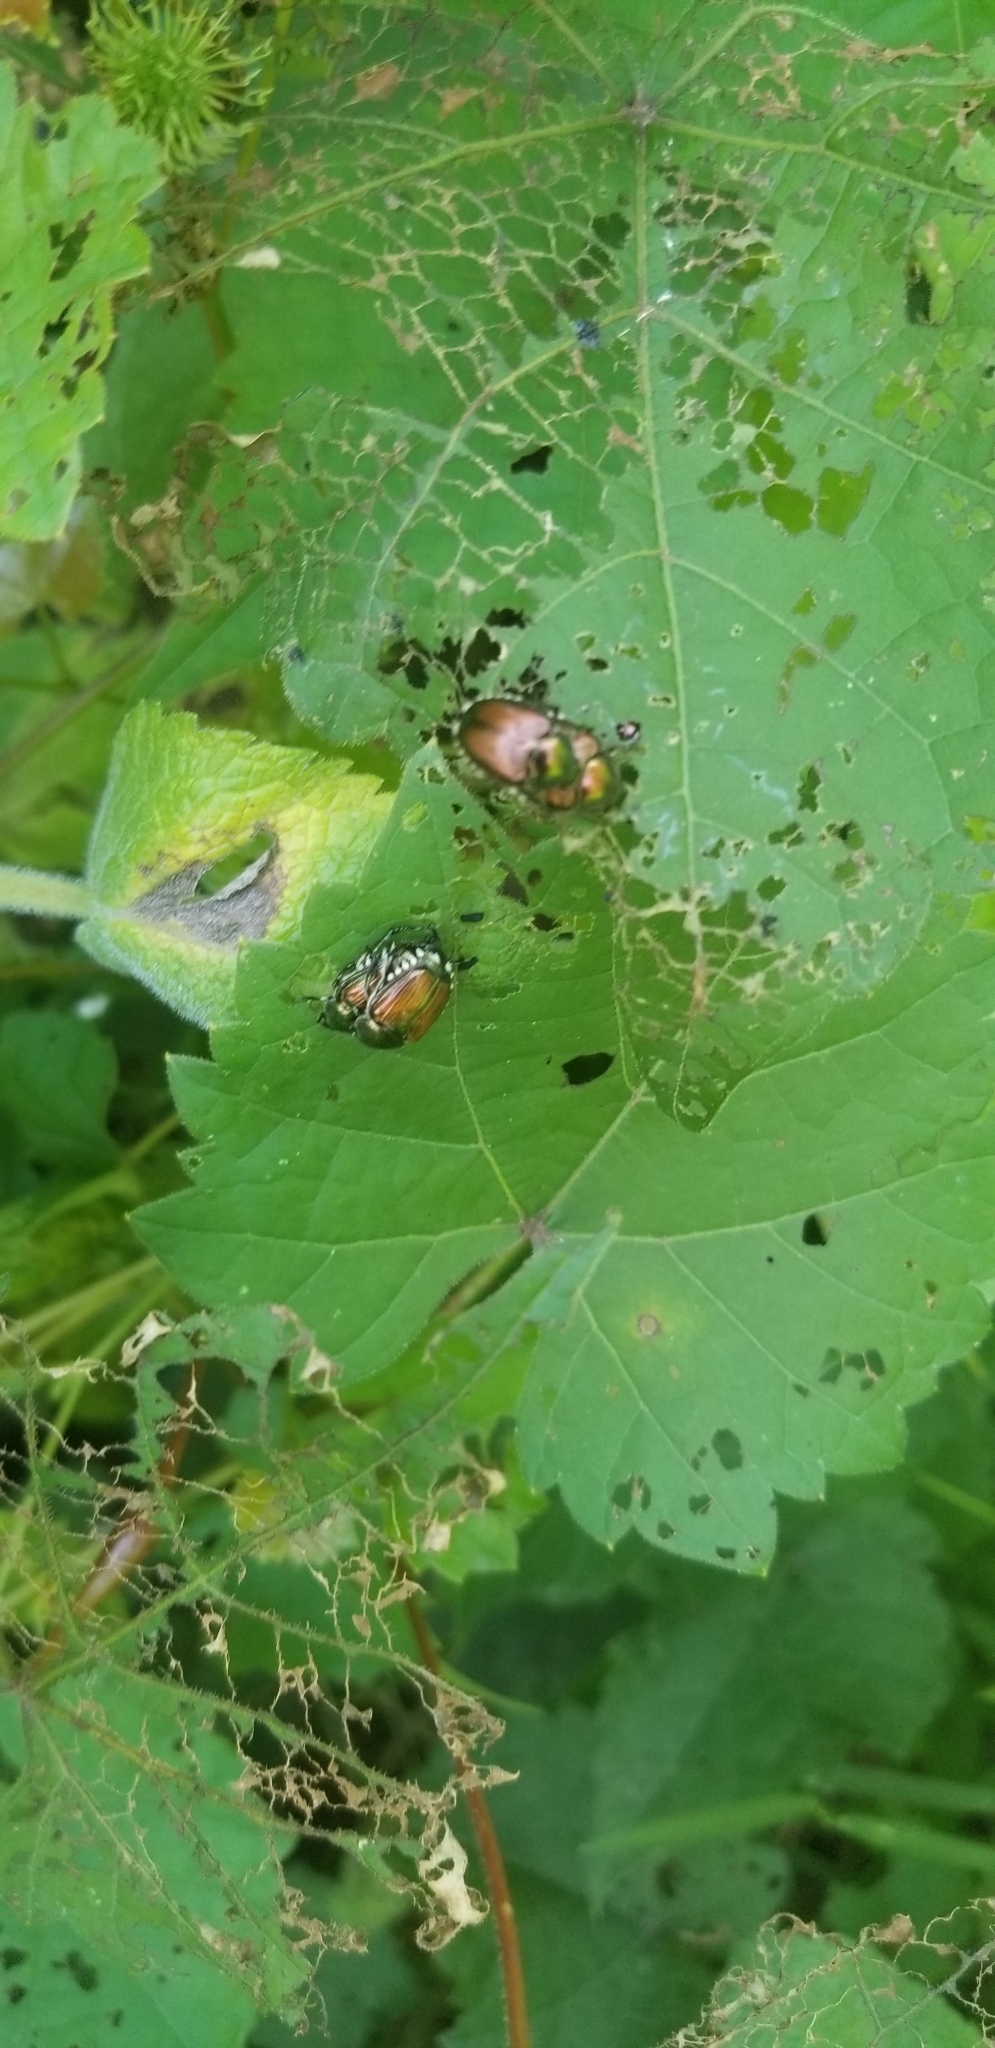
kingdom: Animalia
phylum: Arthropoda
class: Insecta
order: Coleoptera
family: Scarabaeidae
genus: Popillia
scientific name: Popillia japonica
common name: Japanese beetle
